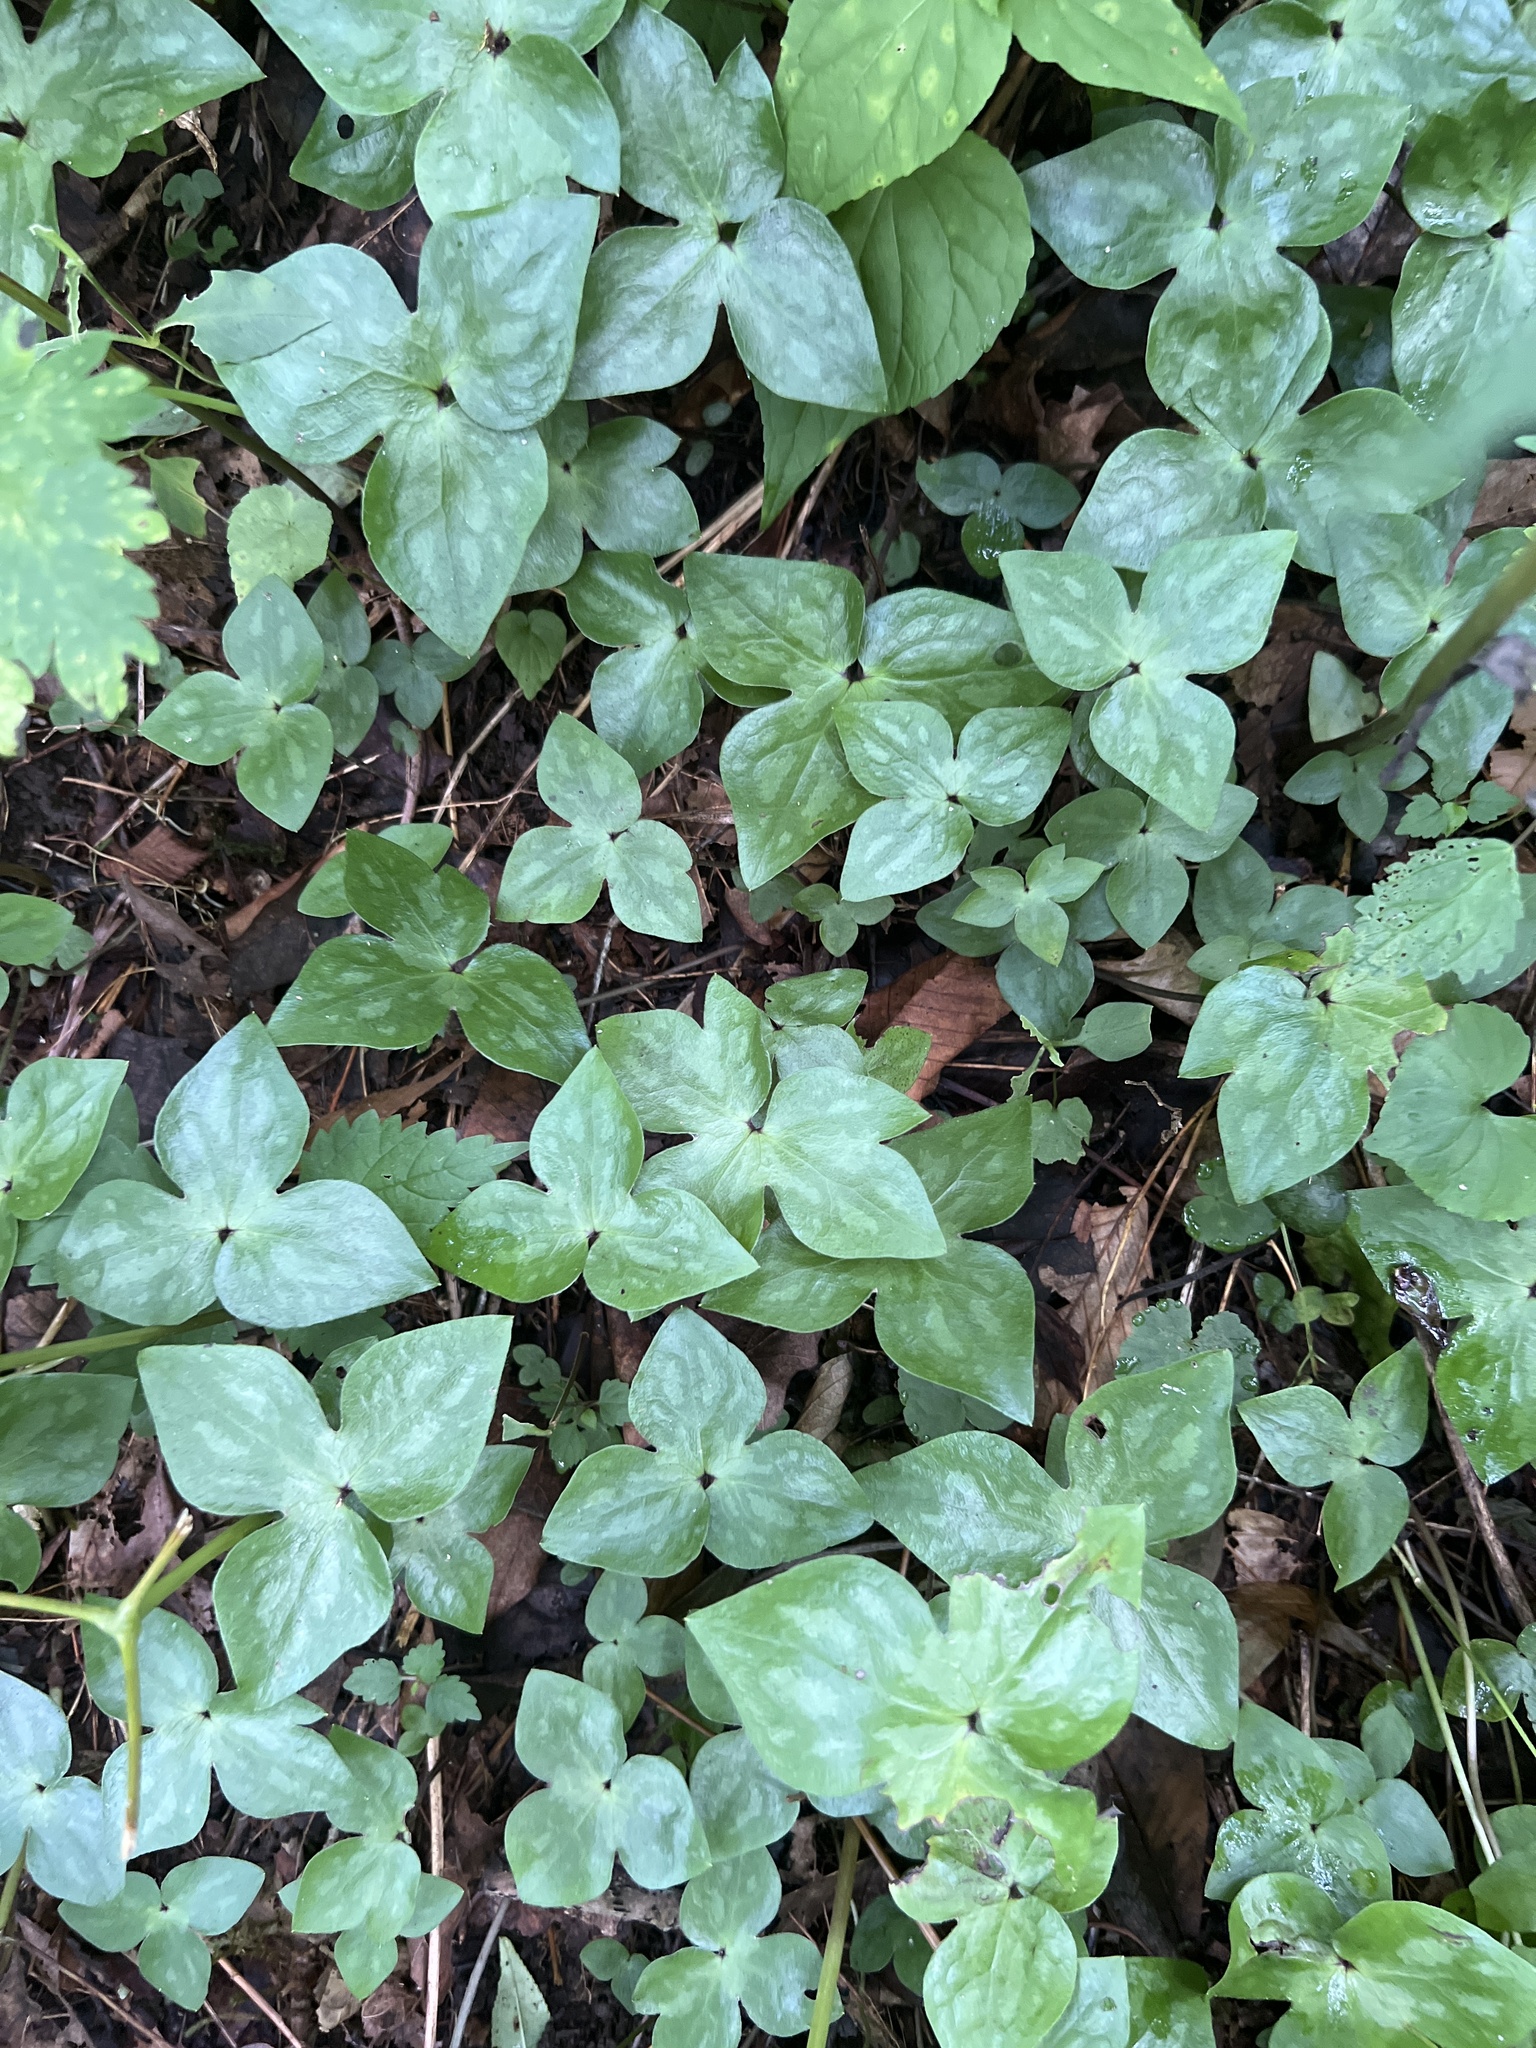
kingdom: Plantae
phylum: Tracheophyta
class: Magnoliopsida
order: Ranunculales
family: Ranunculaceae
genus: Hepatica
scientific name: Hepatica acutiloba
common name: Sharp-lobed hepatica
